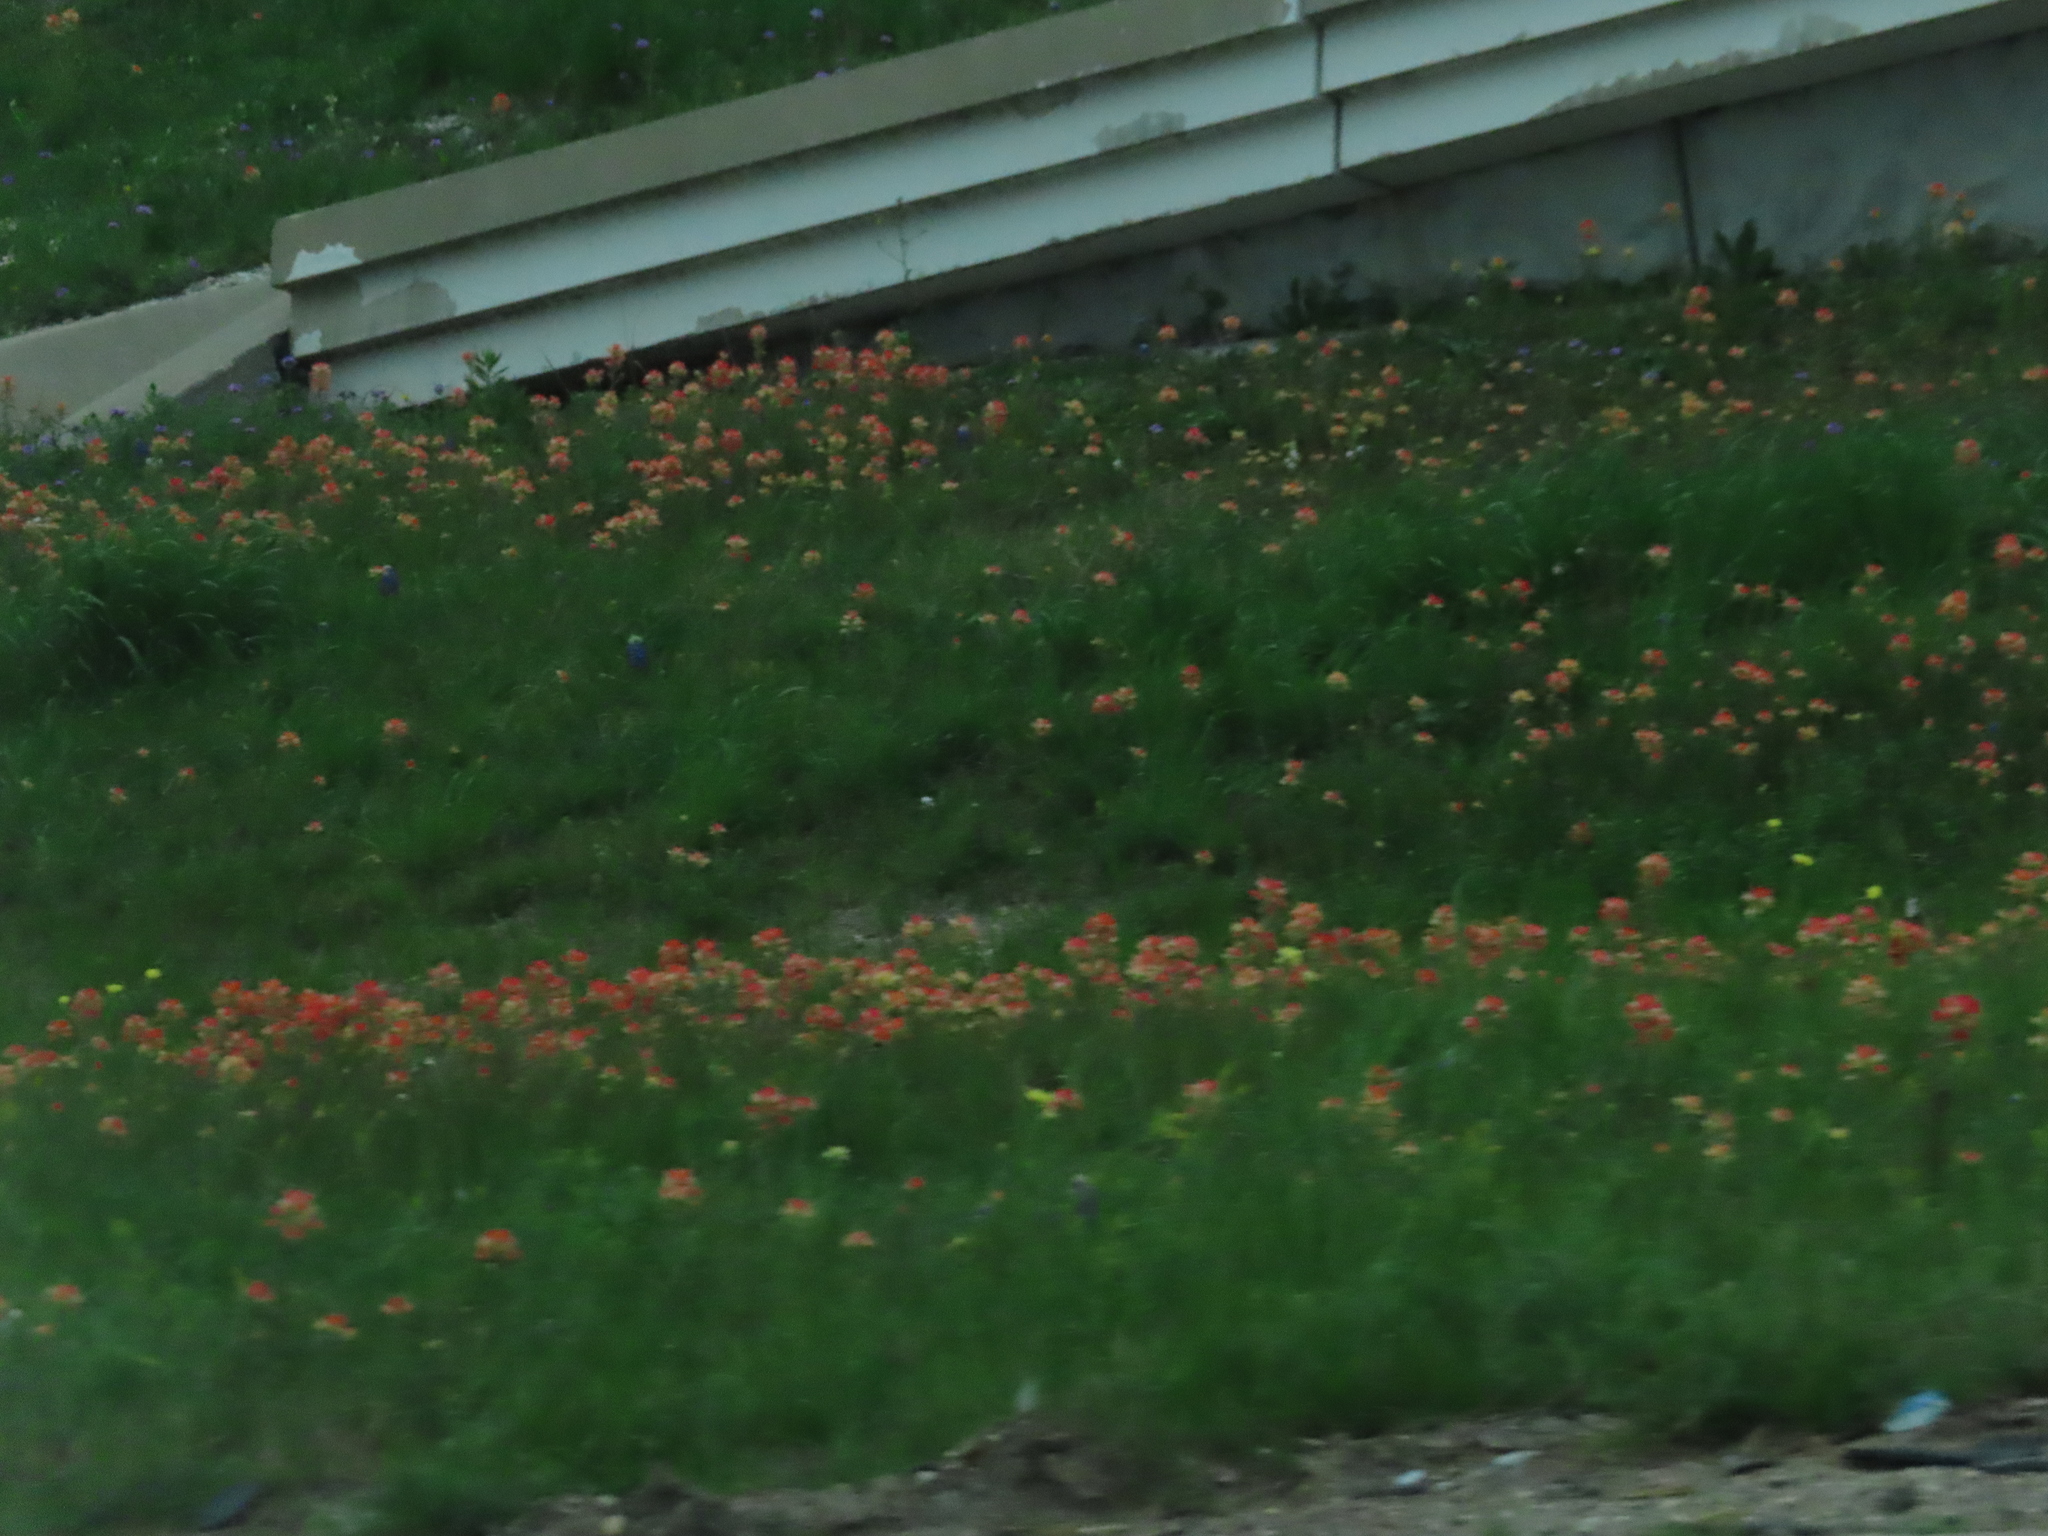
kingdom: Plantae
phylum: Tracheophyta
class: Magnoliopsida
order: Lamiales
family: Orobanchaceae
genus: Castilleja
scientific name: Castilleja indivisa
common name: Texas paintbrush
